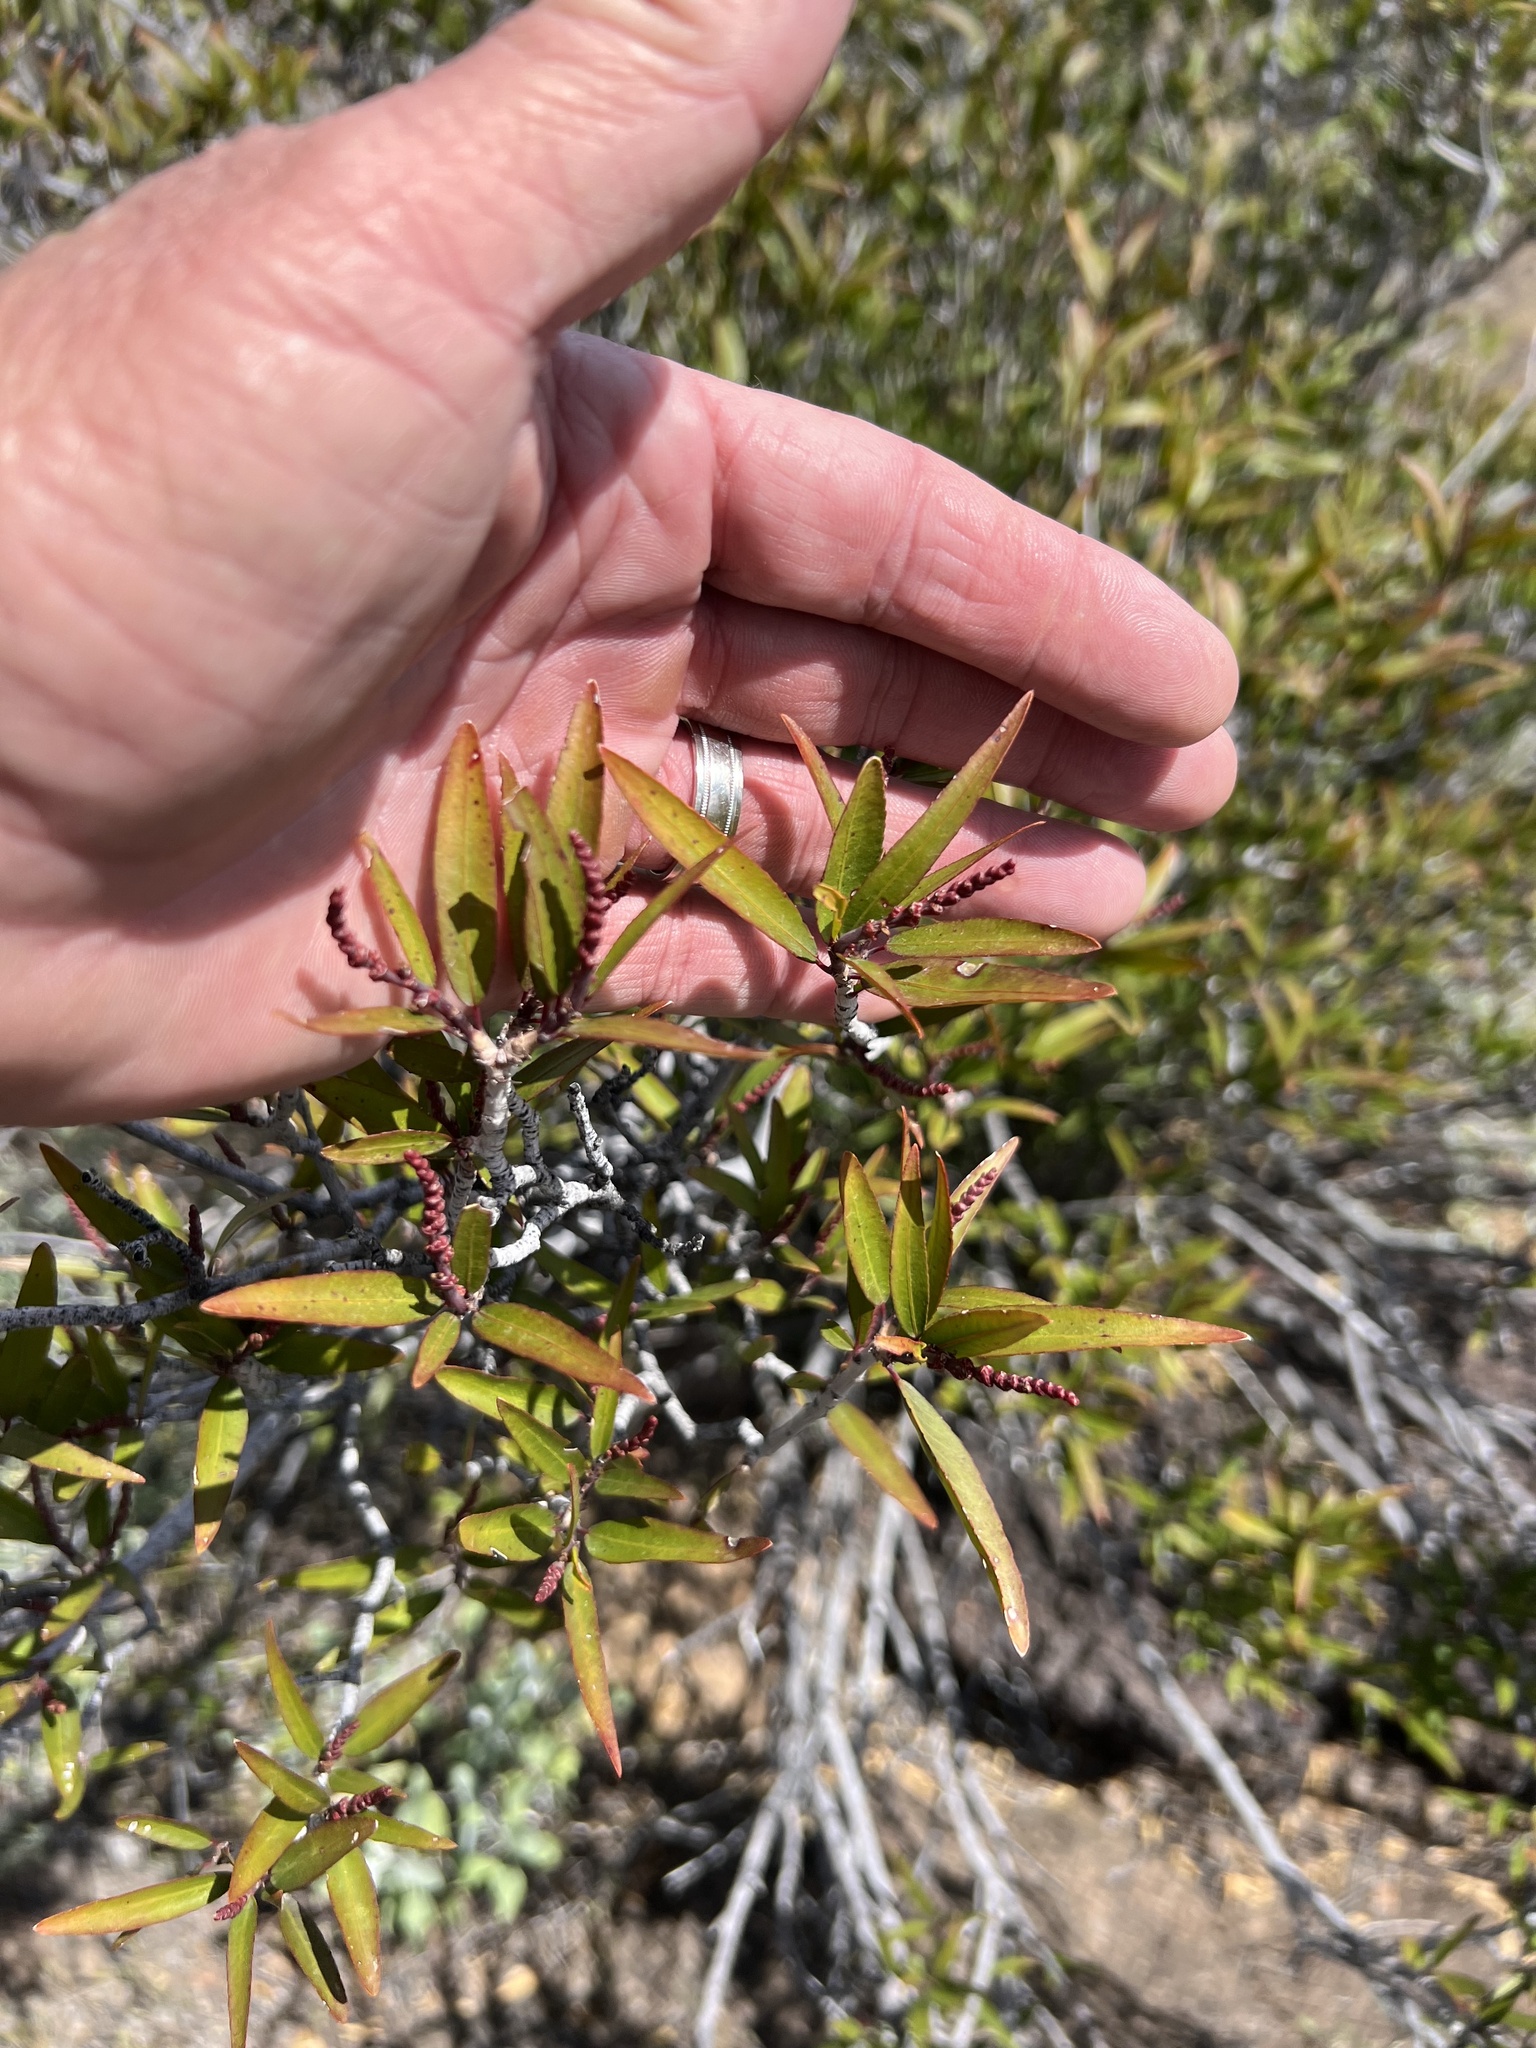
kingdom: Plantae
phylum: Tracheophyta
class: Magnoliopsida
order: Malpighiales
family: Euphorbiaceae
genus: Pleradenophora
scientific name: Pleradenophora bilocularis
